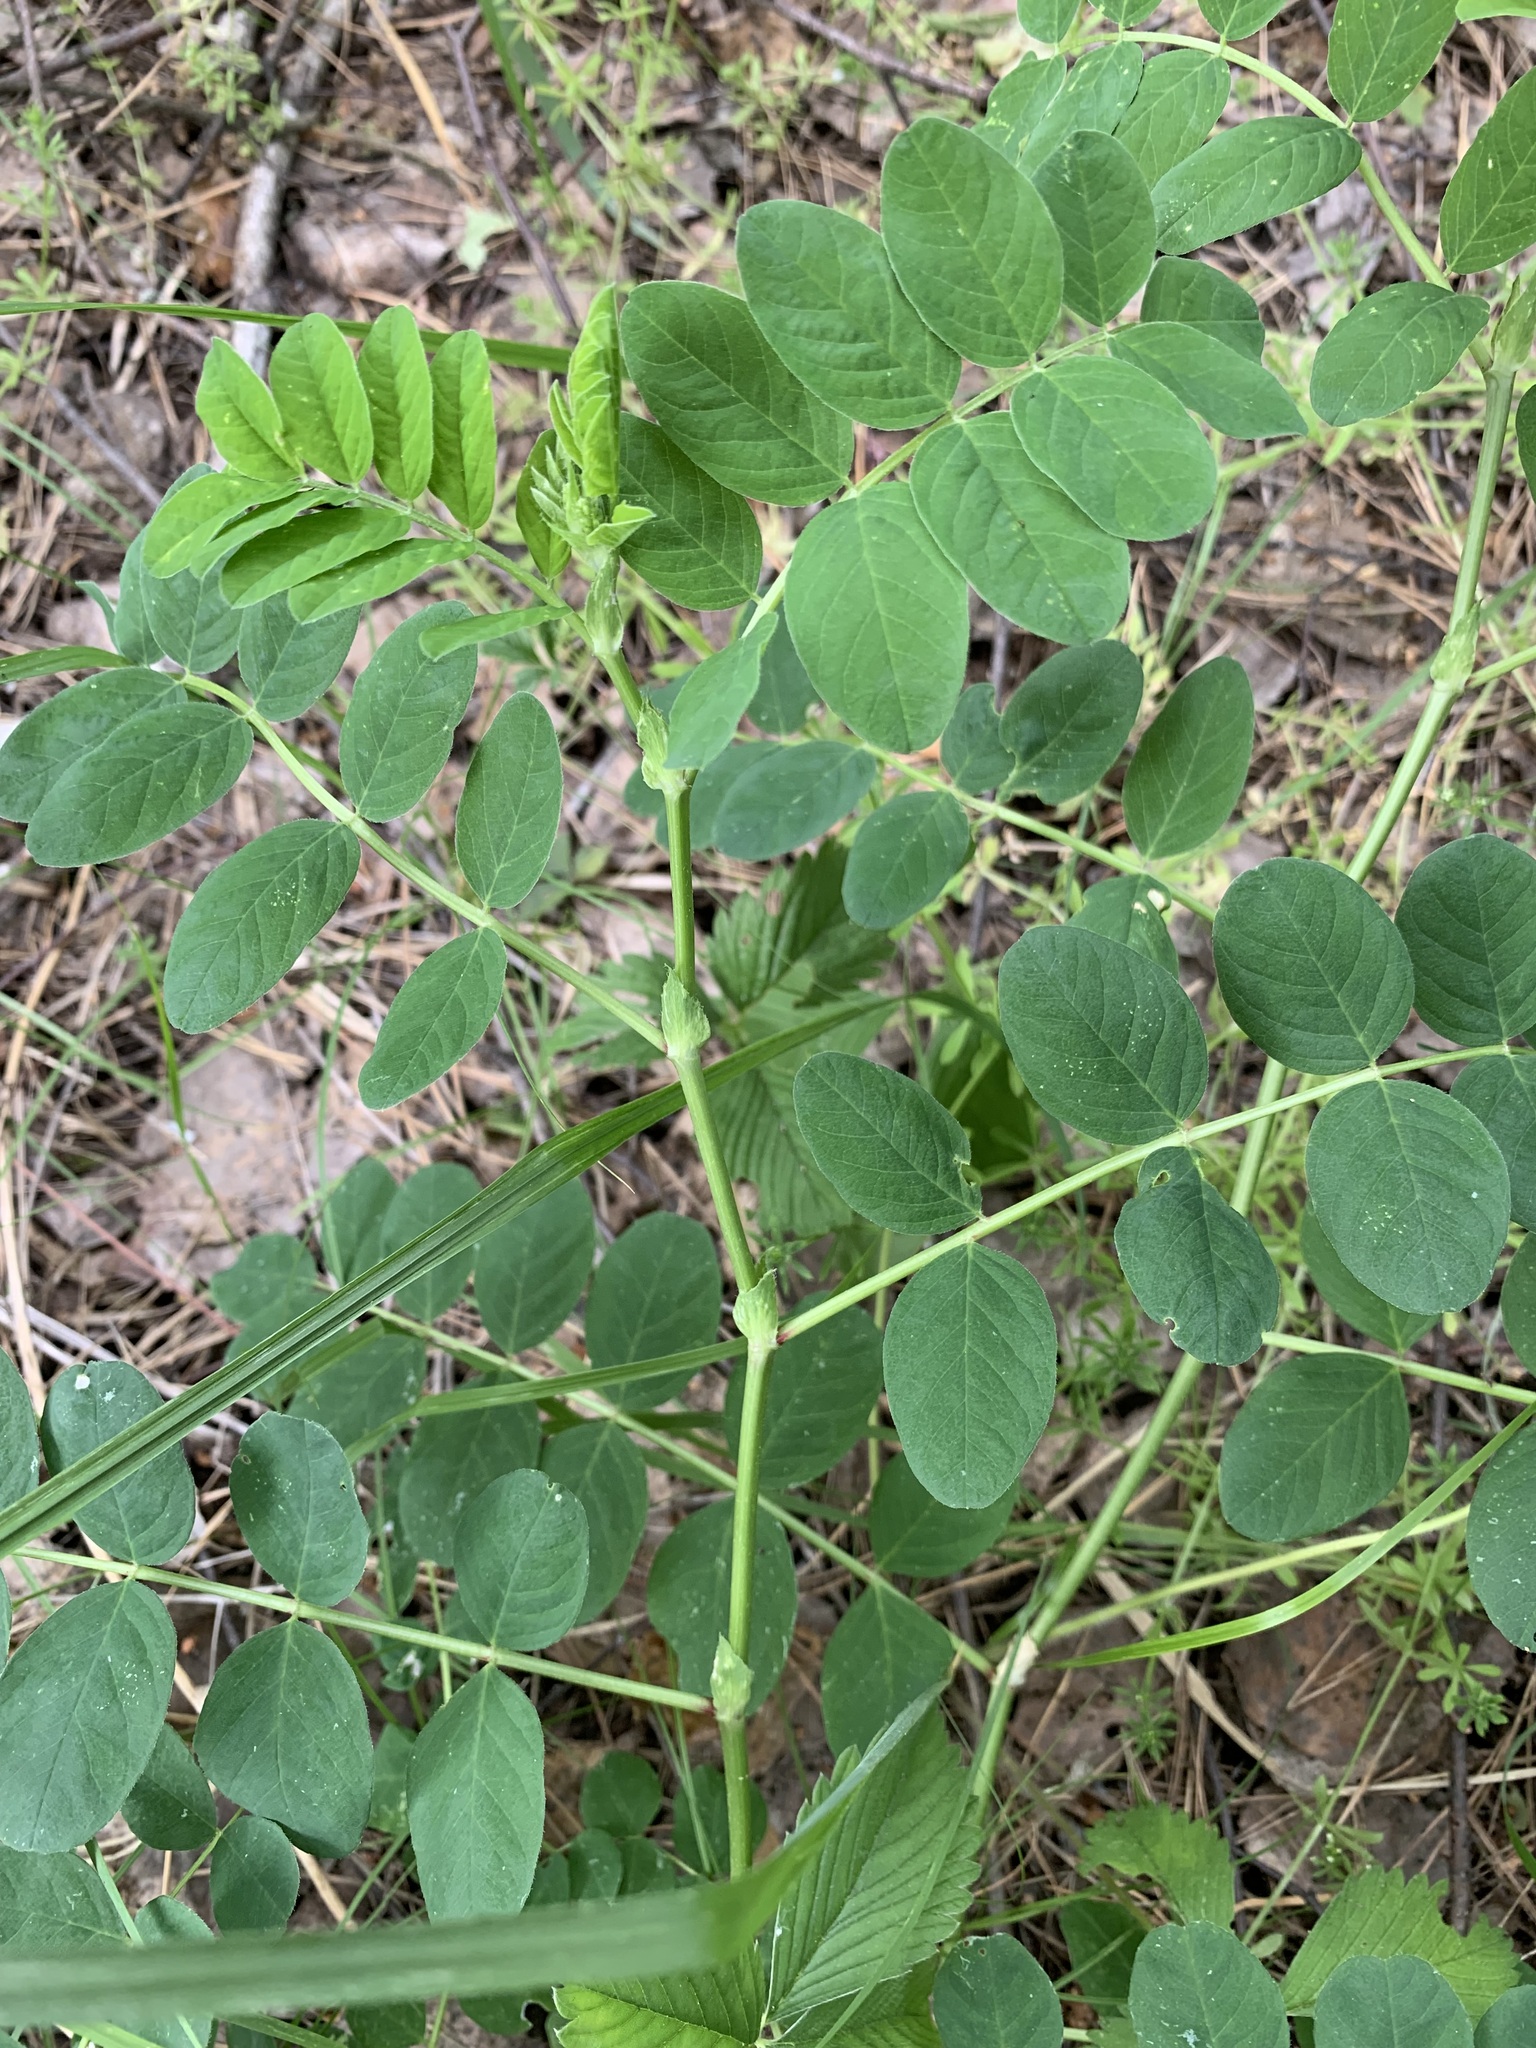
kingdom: Plantae
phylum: Tracheophyta
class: Magnoliopsida
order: Fabales
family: Fabaceae
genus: Astragalus
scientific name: Astragalus glycyphyllos
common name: Wild liquorice
